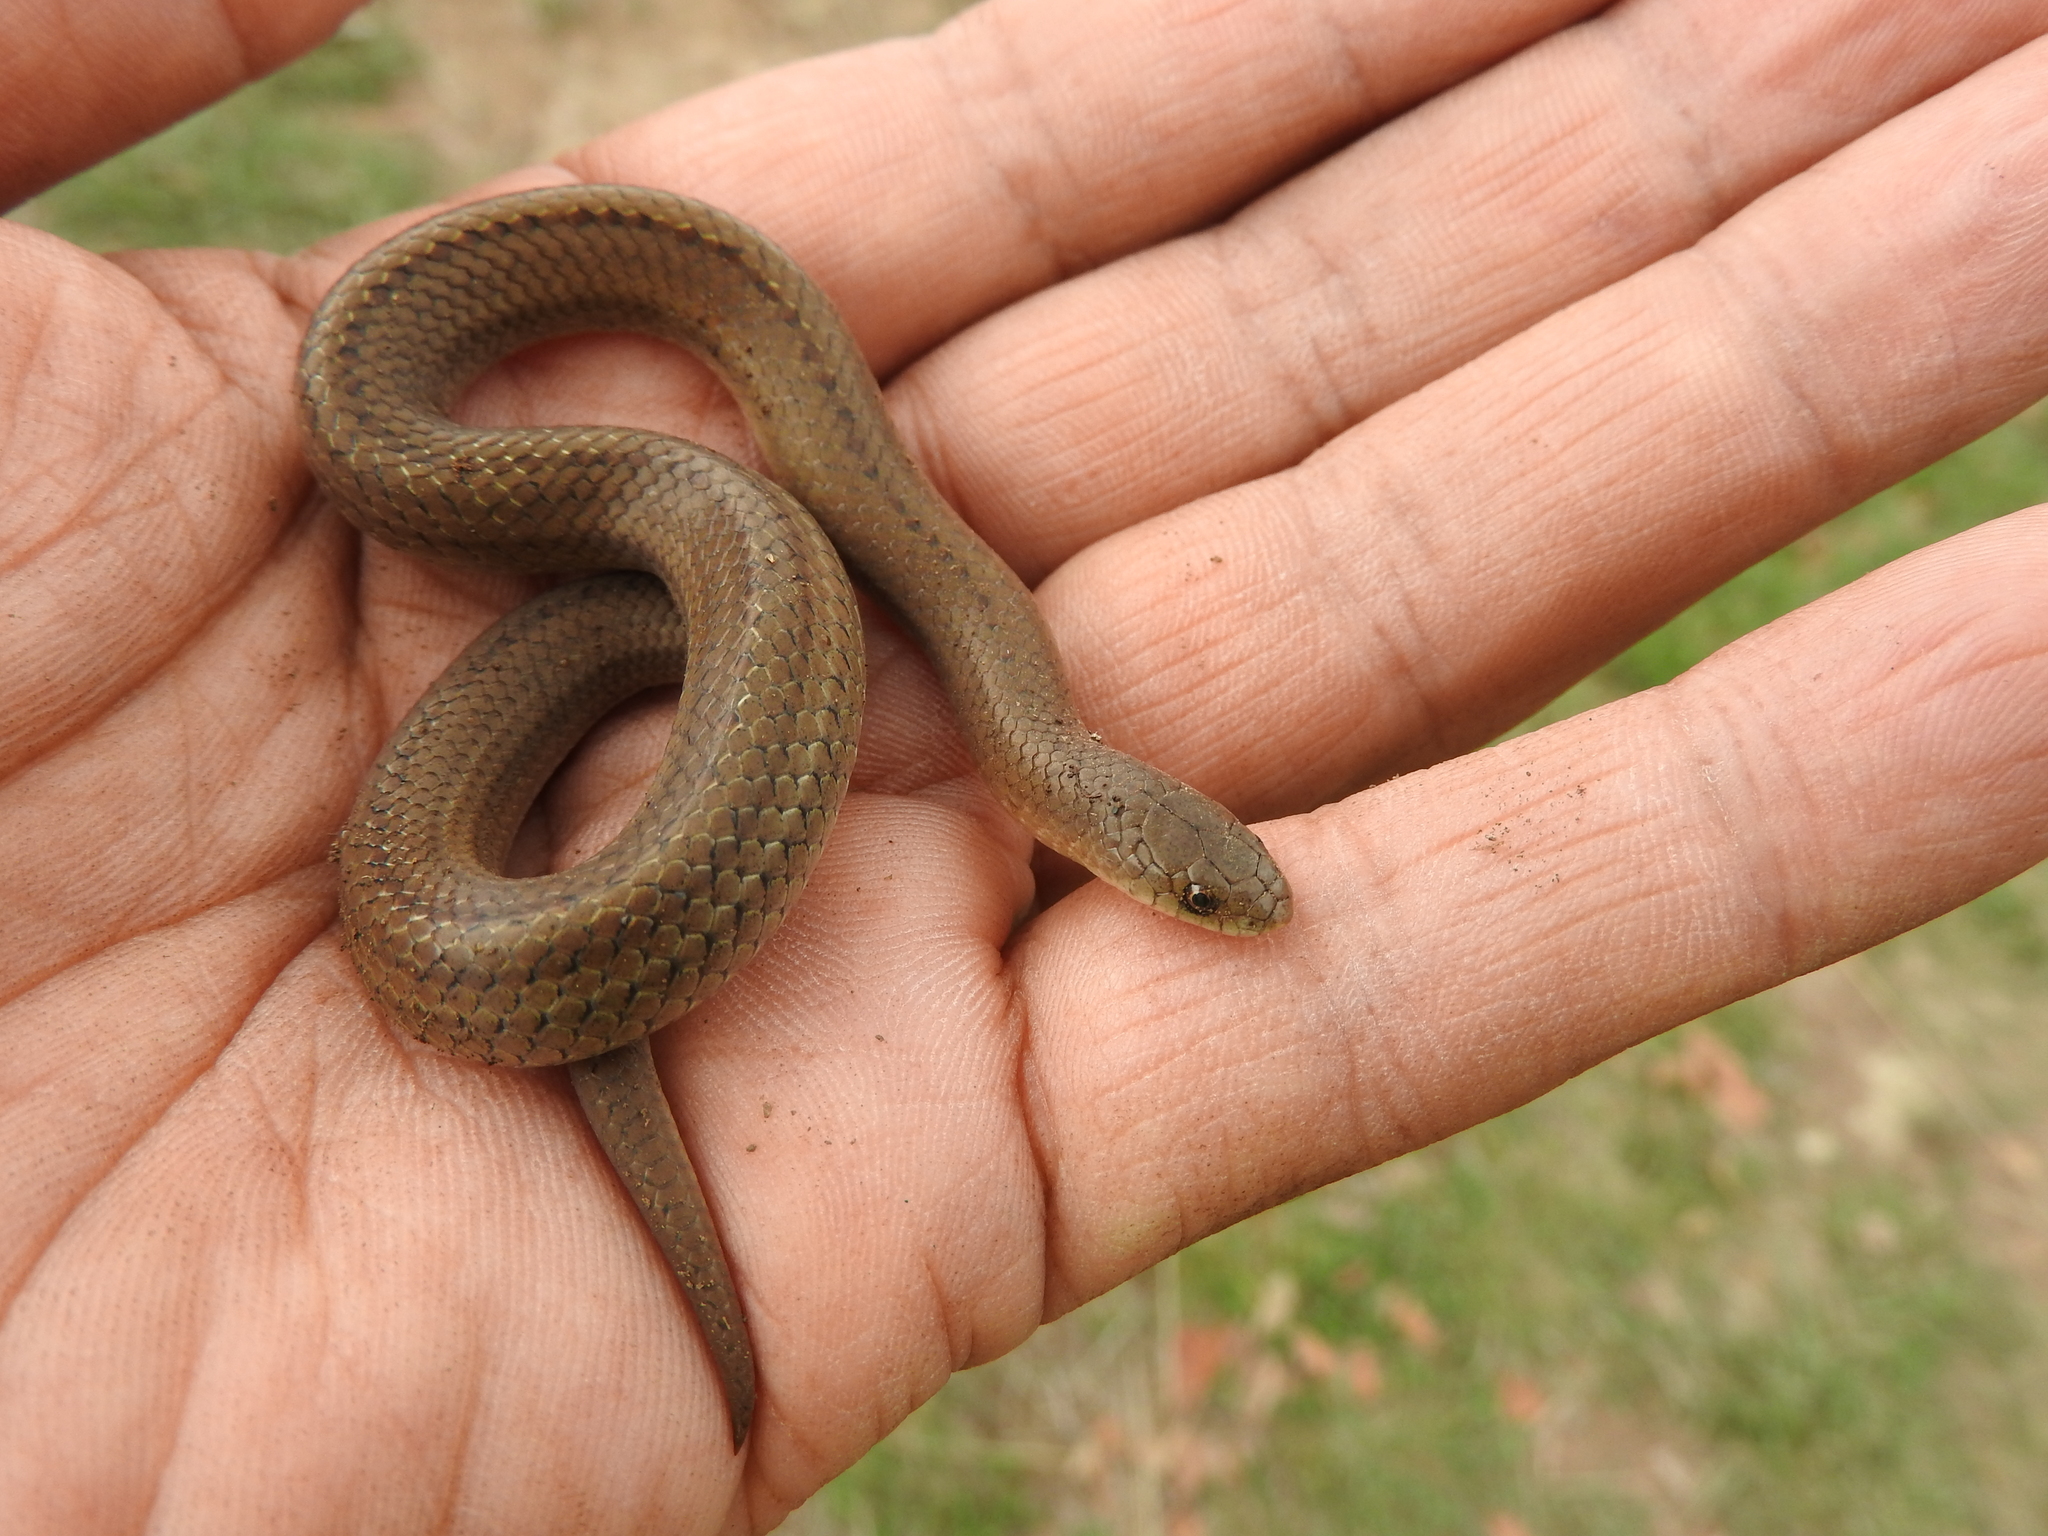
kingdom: Animalia
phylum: Chordata
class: Squamata
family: Colubridae
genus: Conopsis
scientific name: Conopsis lineata
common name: Lined tolucan earthsnake
